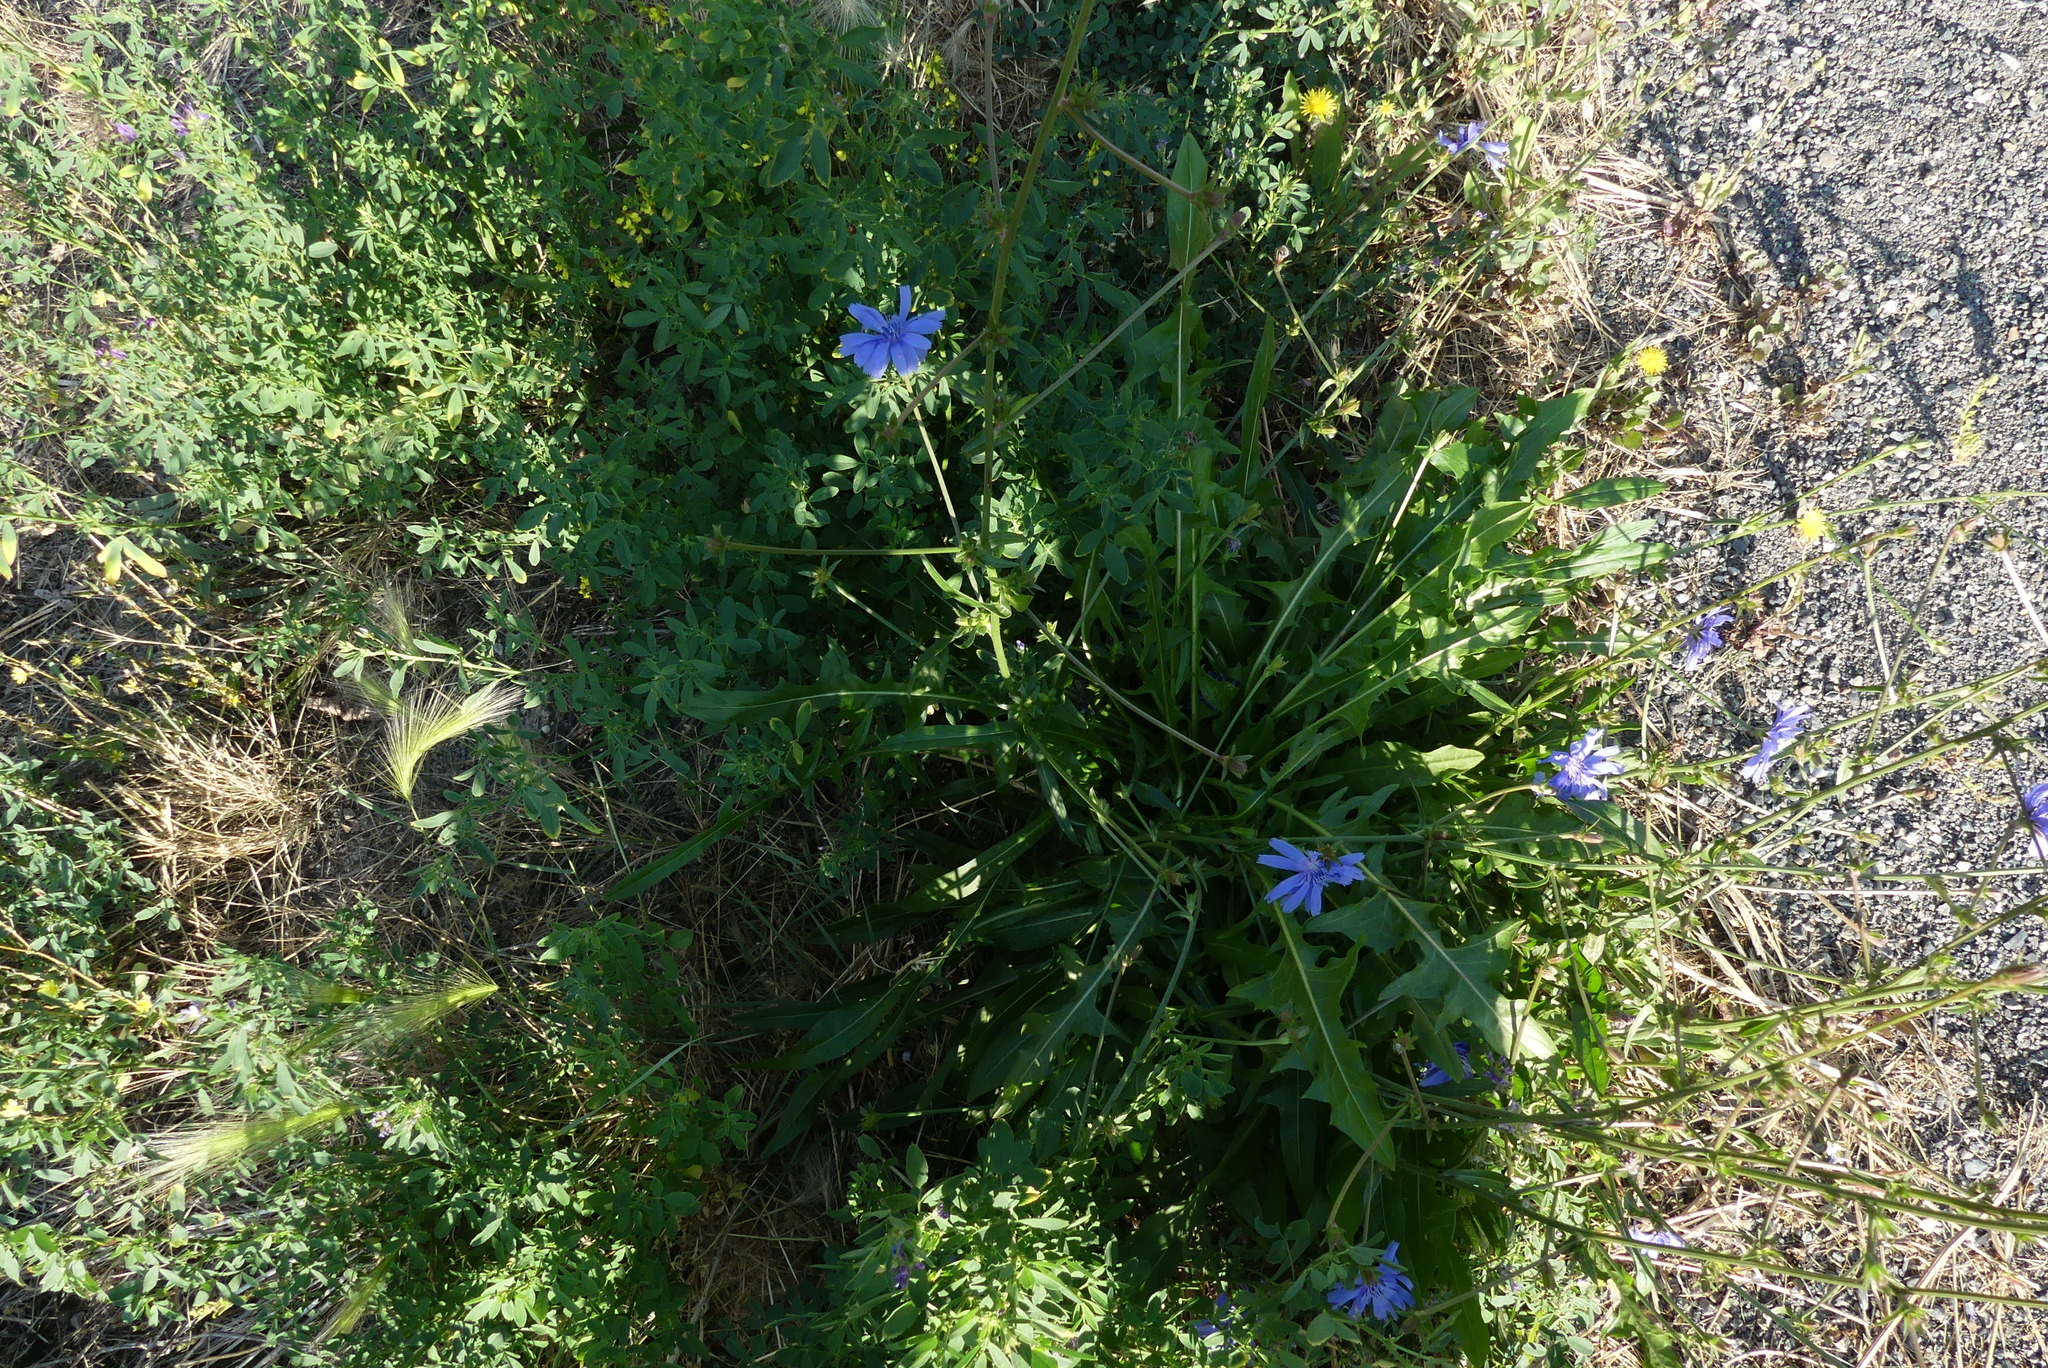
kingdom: Plantae
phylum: Tracheophyta
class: Magnoliopsida
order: Asterales
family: Asteraceae
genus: Cichorium
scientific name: Cichorium intybus
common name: Chicory
